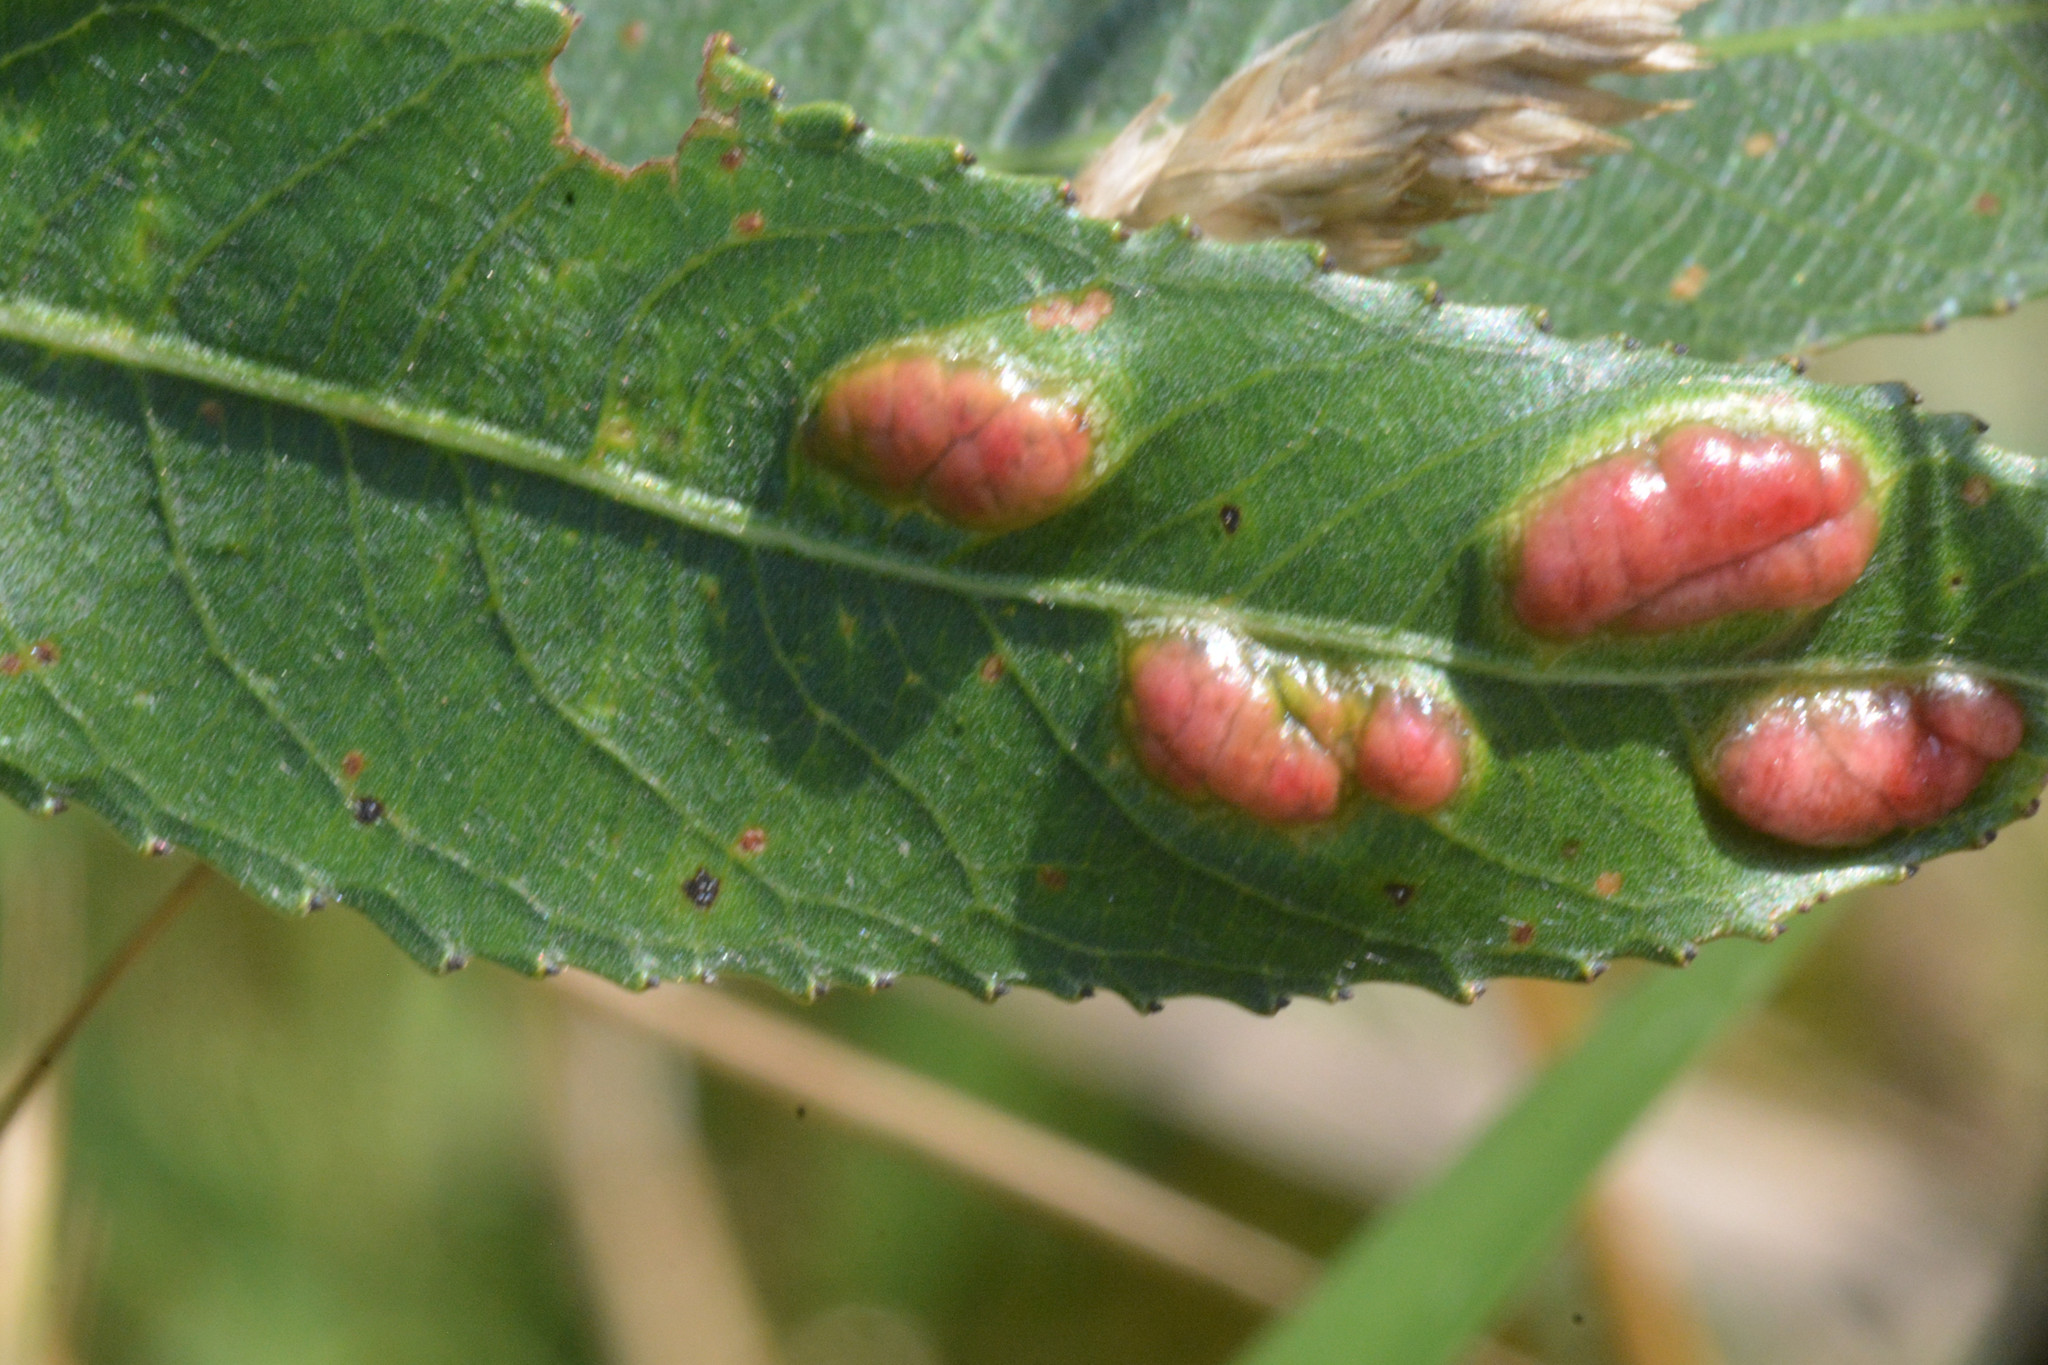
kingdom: Animalia
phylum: Arthropoda
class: Insecta
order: Hymenoptera
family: Tenthredinidae
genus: Pontania
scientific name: Pontania proxima
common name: Common sawfly
